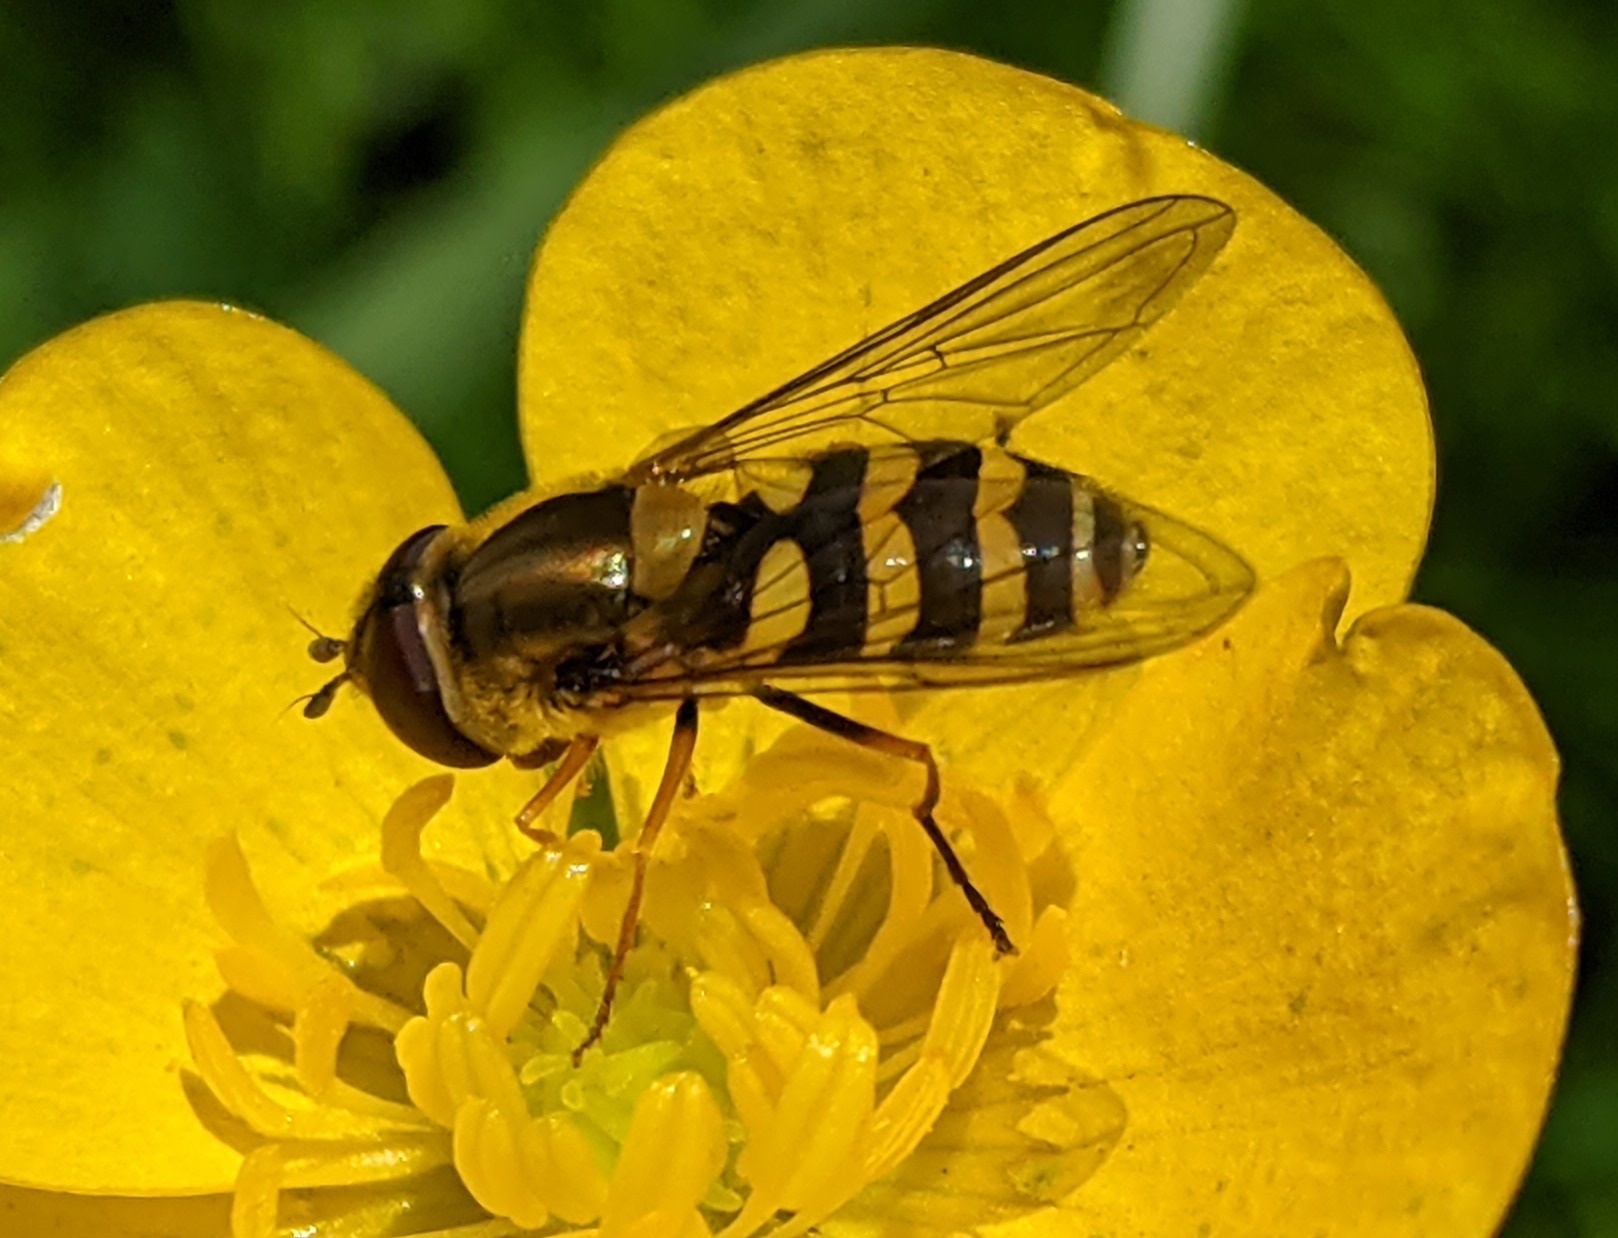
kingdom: Animalia
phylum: Arthropoda
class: Insecta
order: Diptera
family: Syrphidae
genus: Syrphus
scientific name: Syrphus
